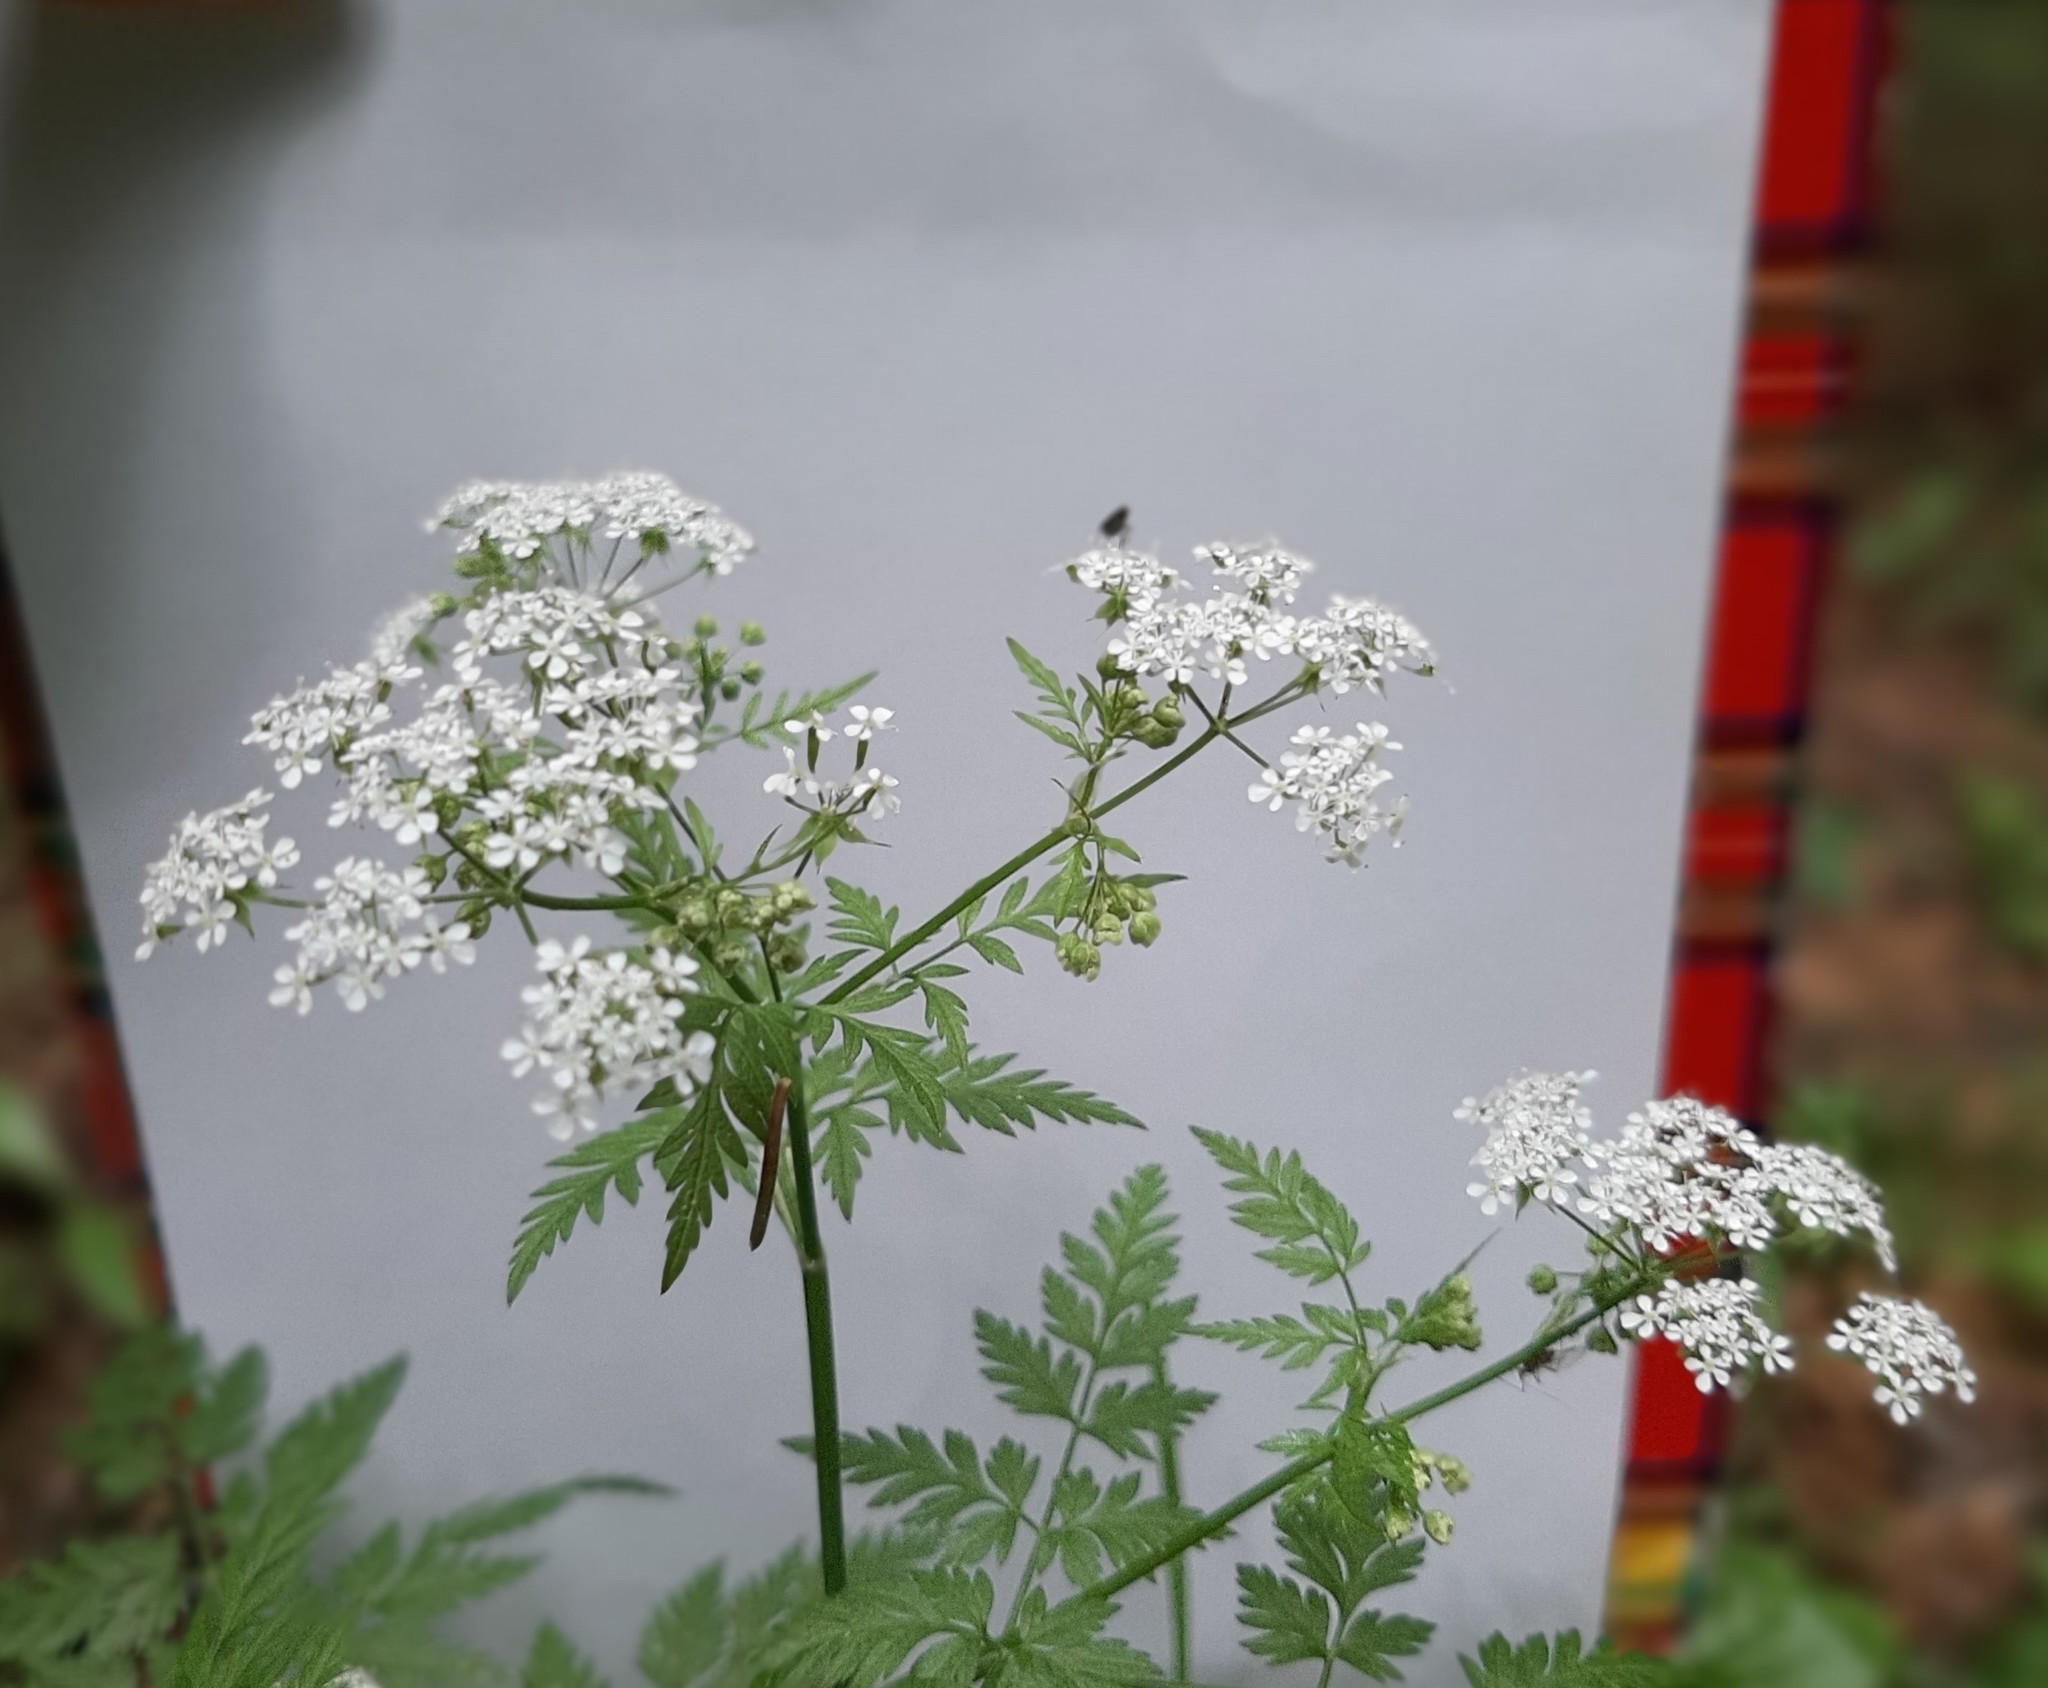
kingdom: Plantae
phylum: Tracheophyta
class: Magnoliopsida
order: Apiales
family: Apiaceae
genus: Anthriscus
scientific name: Anthriscus sylvestris
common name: Cow parsley
